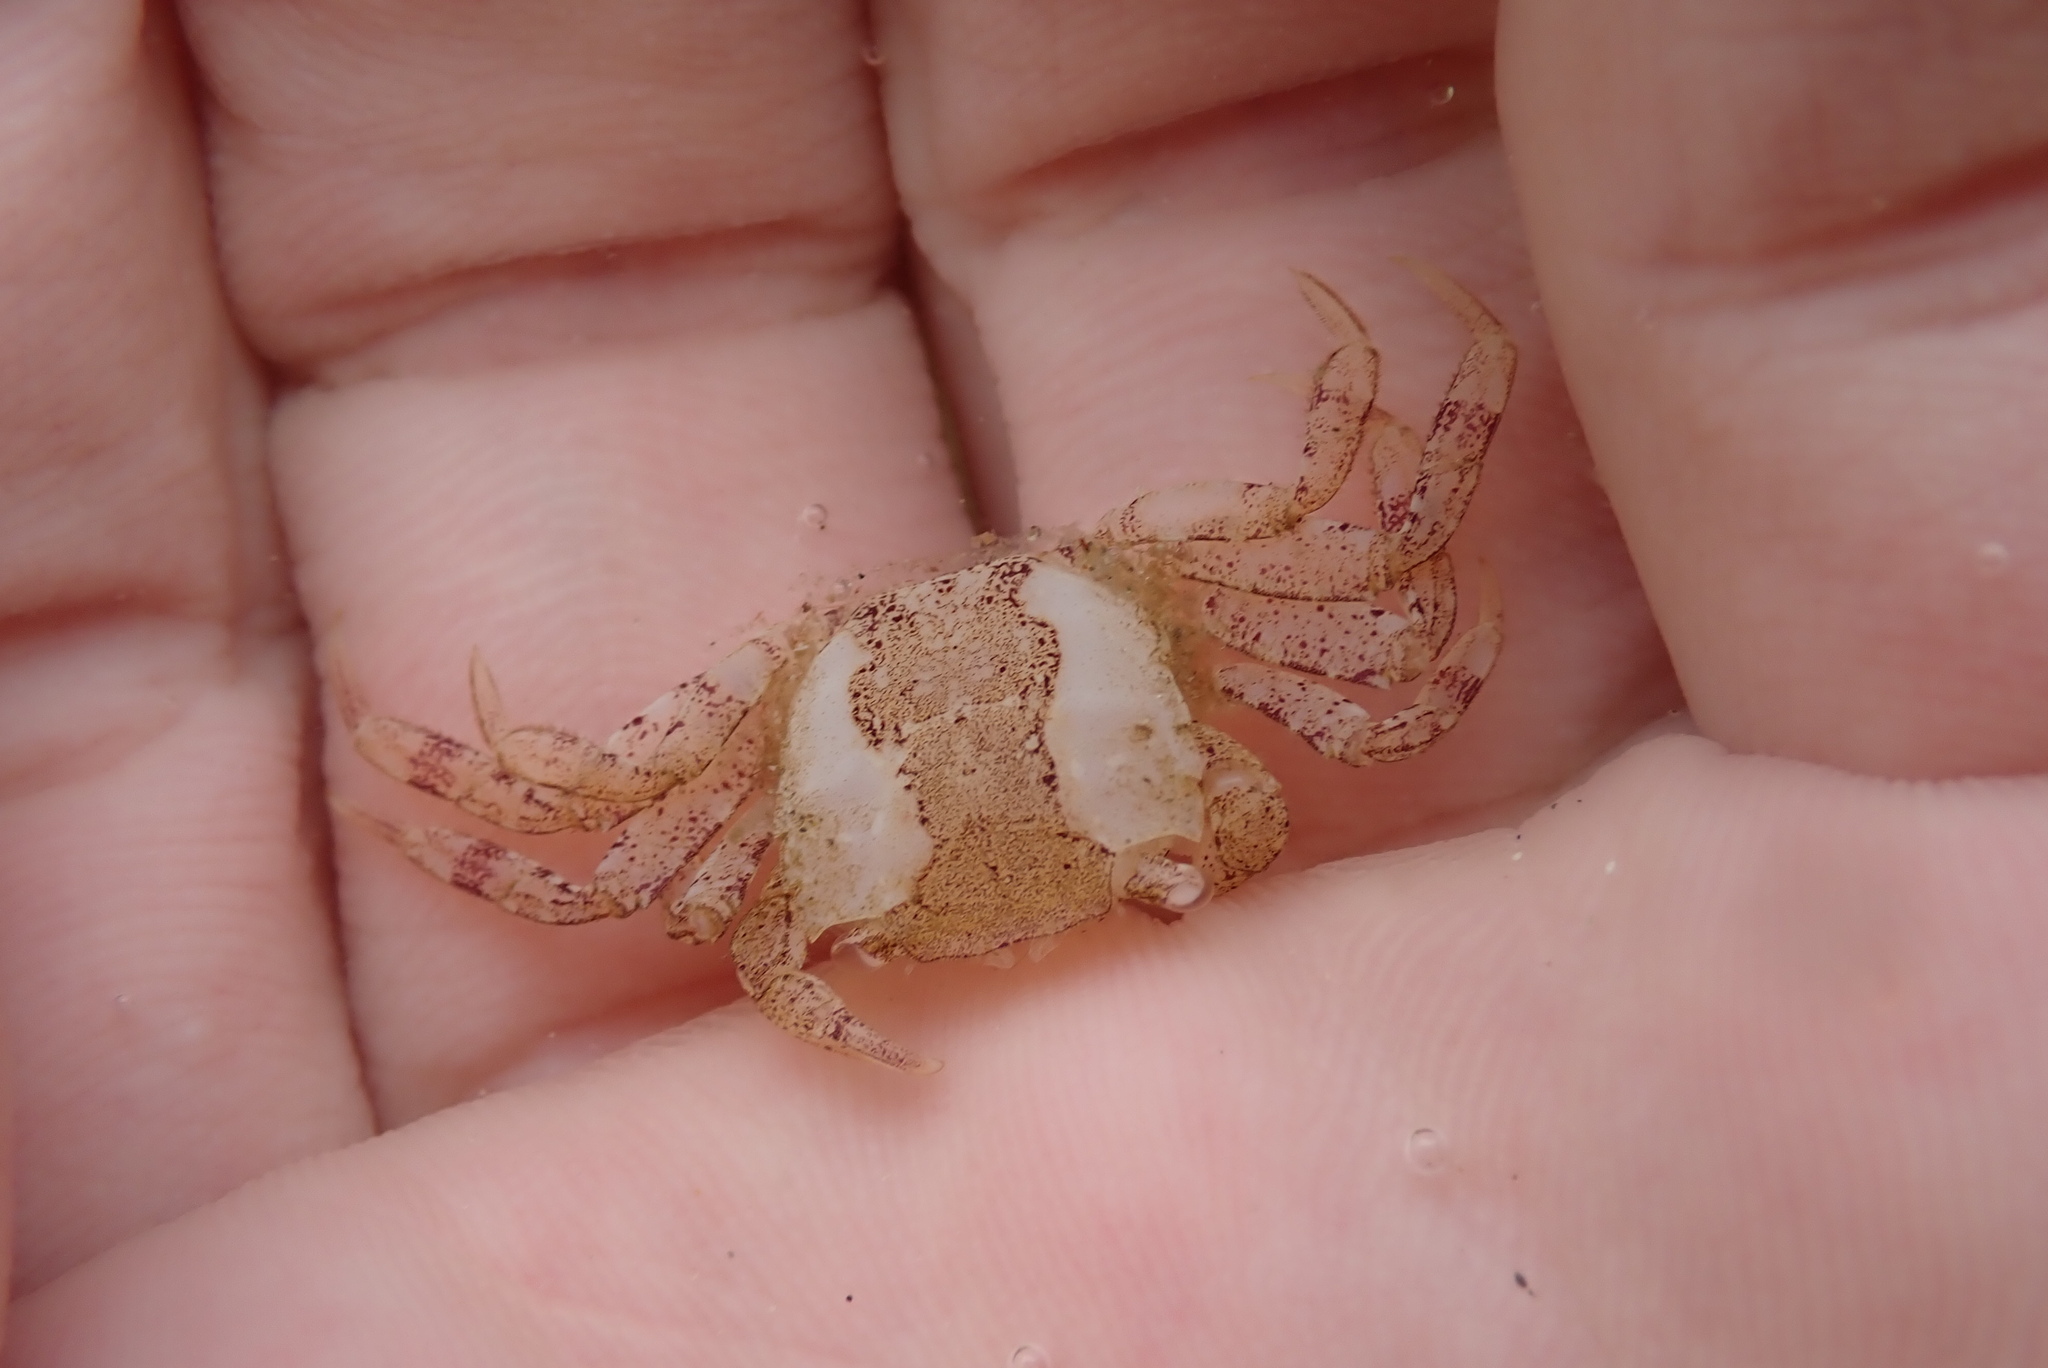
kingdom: Animalia
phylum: Arthropoda
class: Malacostraca
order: Decapoda
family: Varunidae
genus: Hemigrapsus
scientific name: Hemigrapsus takanoi
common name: Asian brush crab
